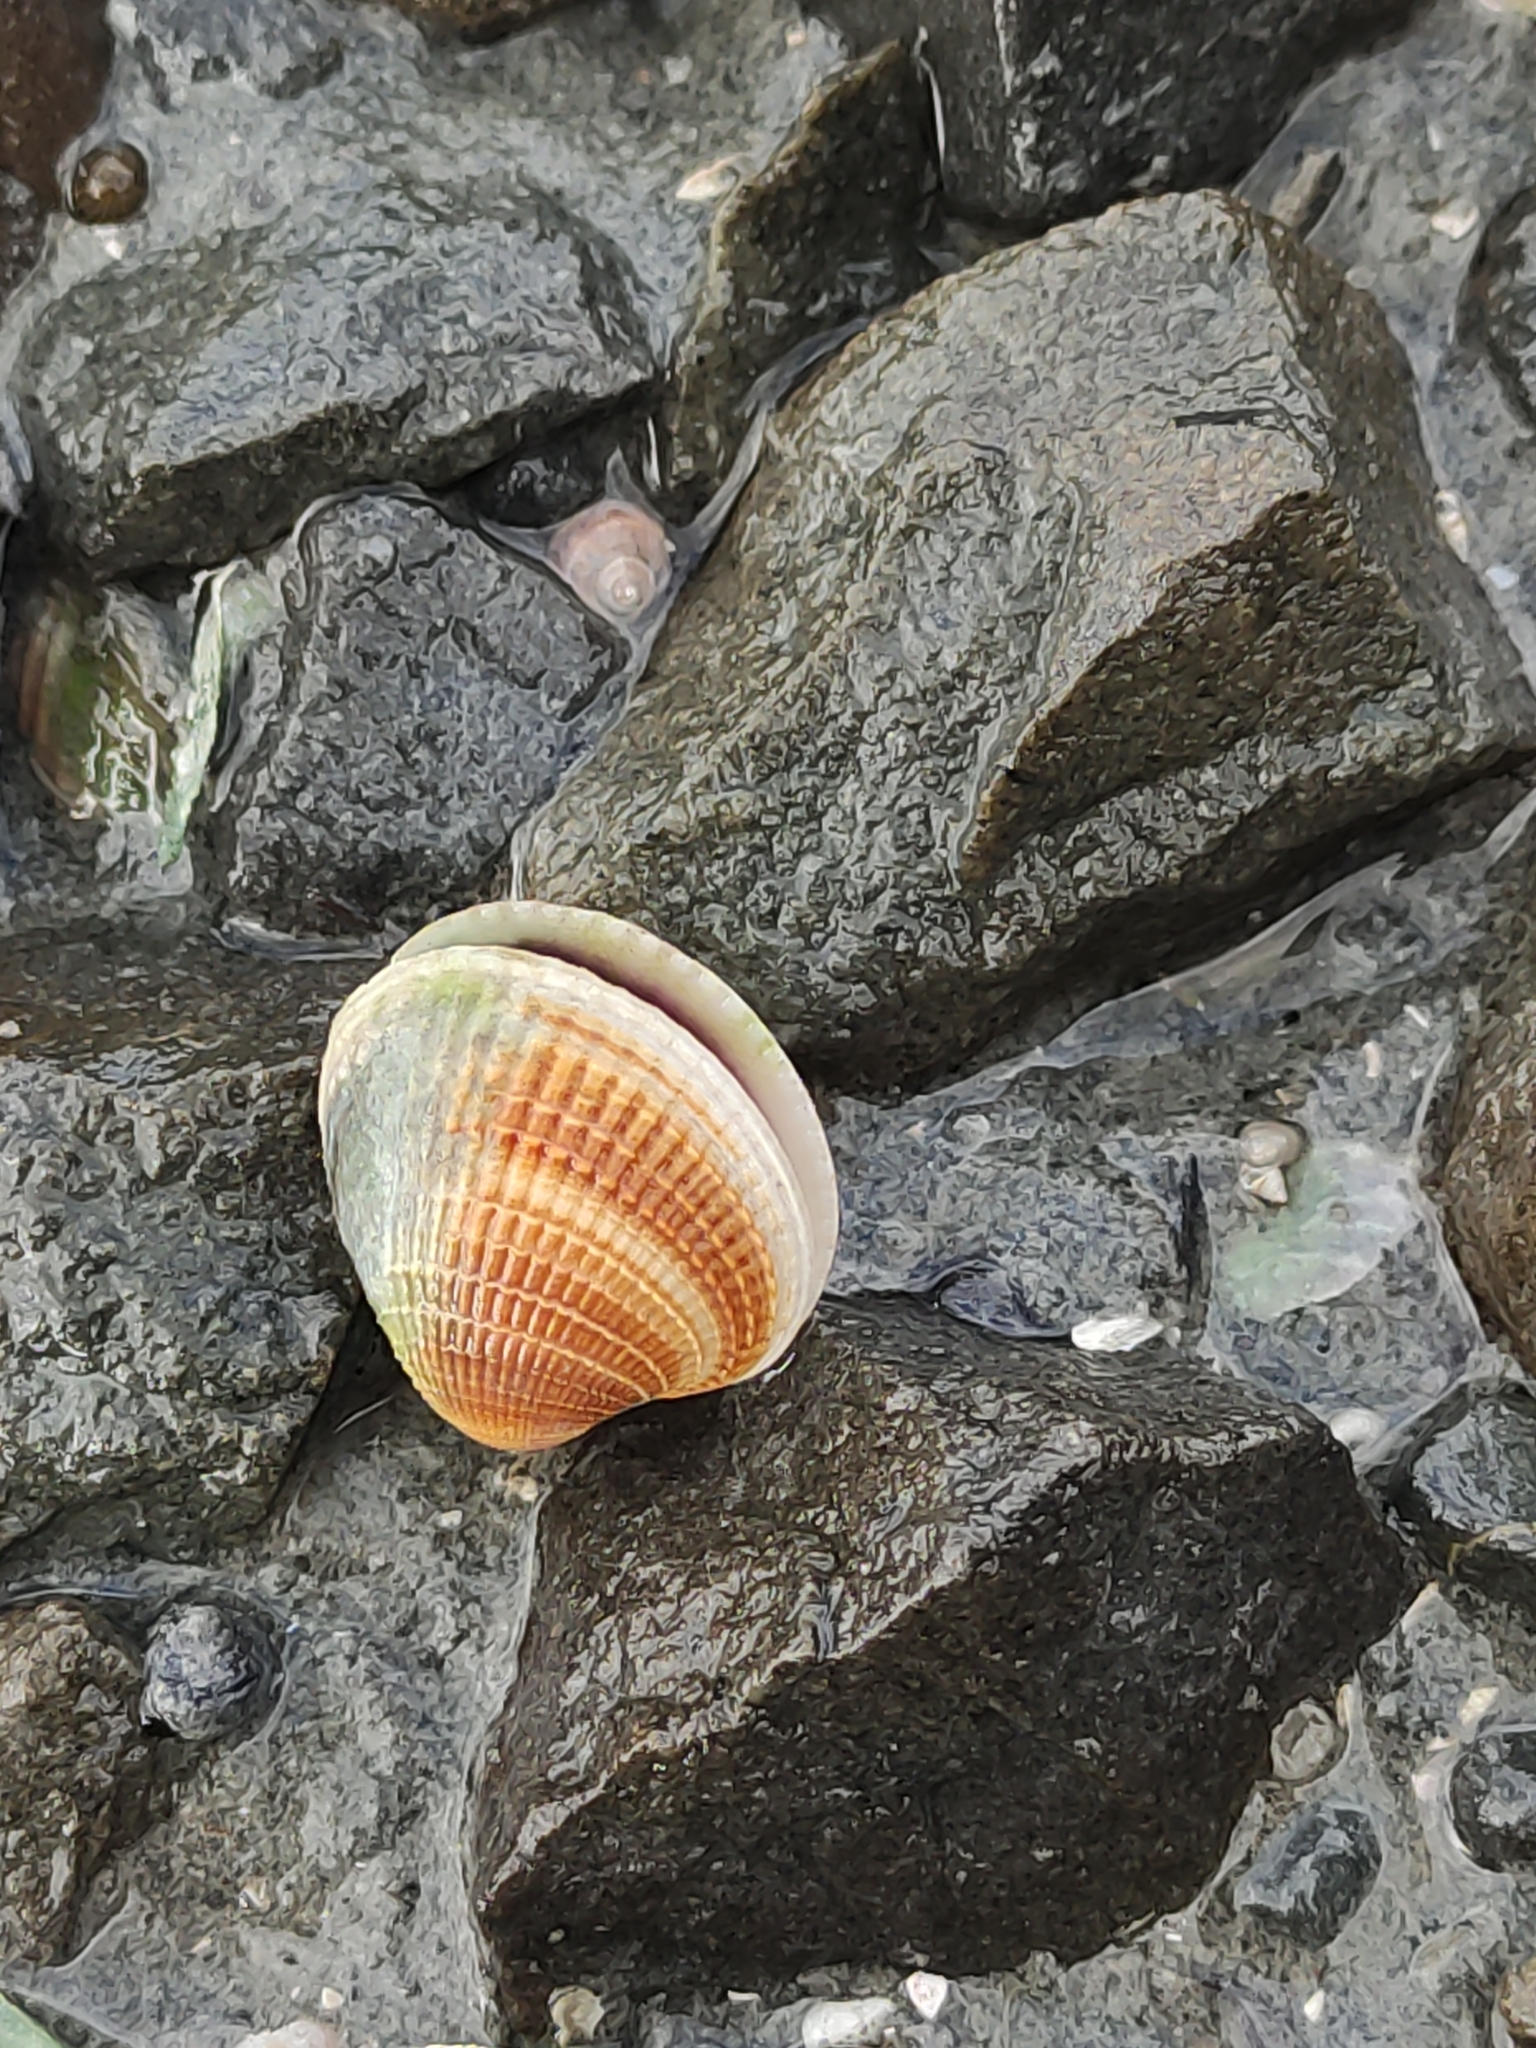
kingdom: Animalia
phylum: Mollusca
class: Bivalvia
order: Venerida
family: Veneridae
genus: Austrovenus
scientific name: Austrovenus stutchburyi
